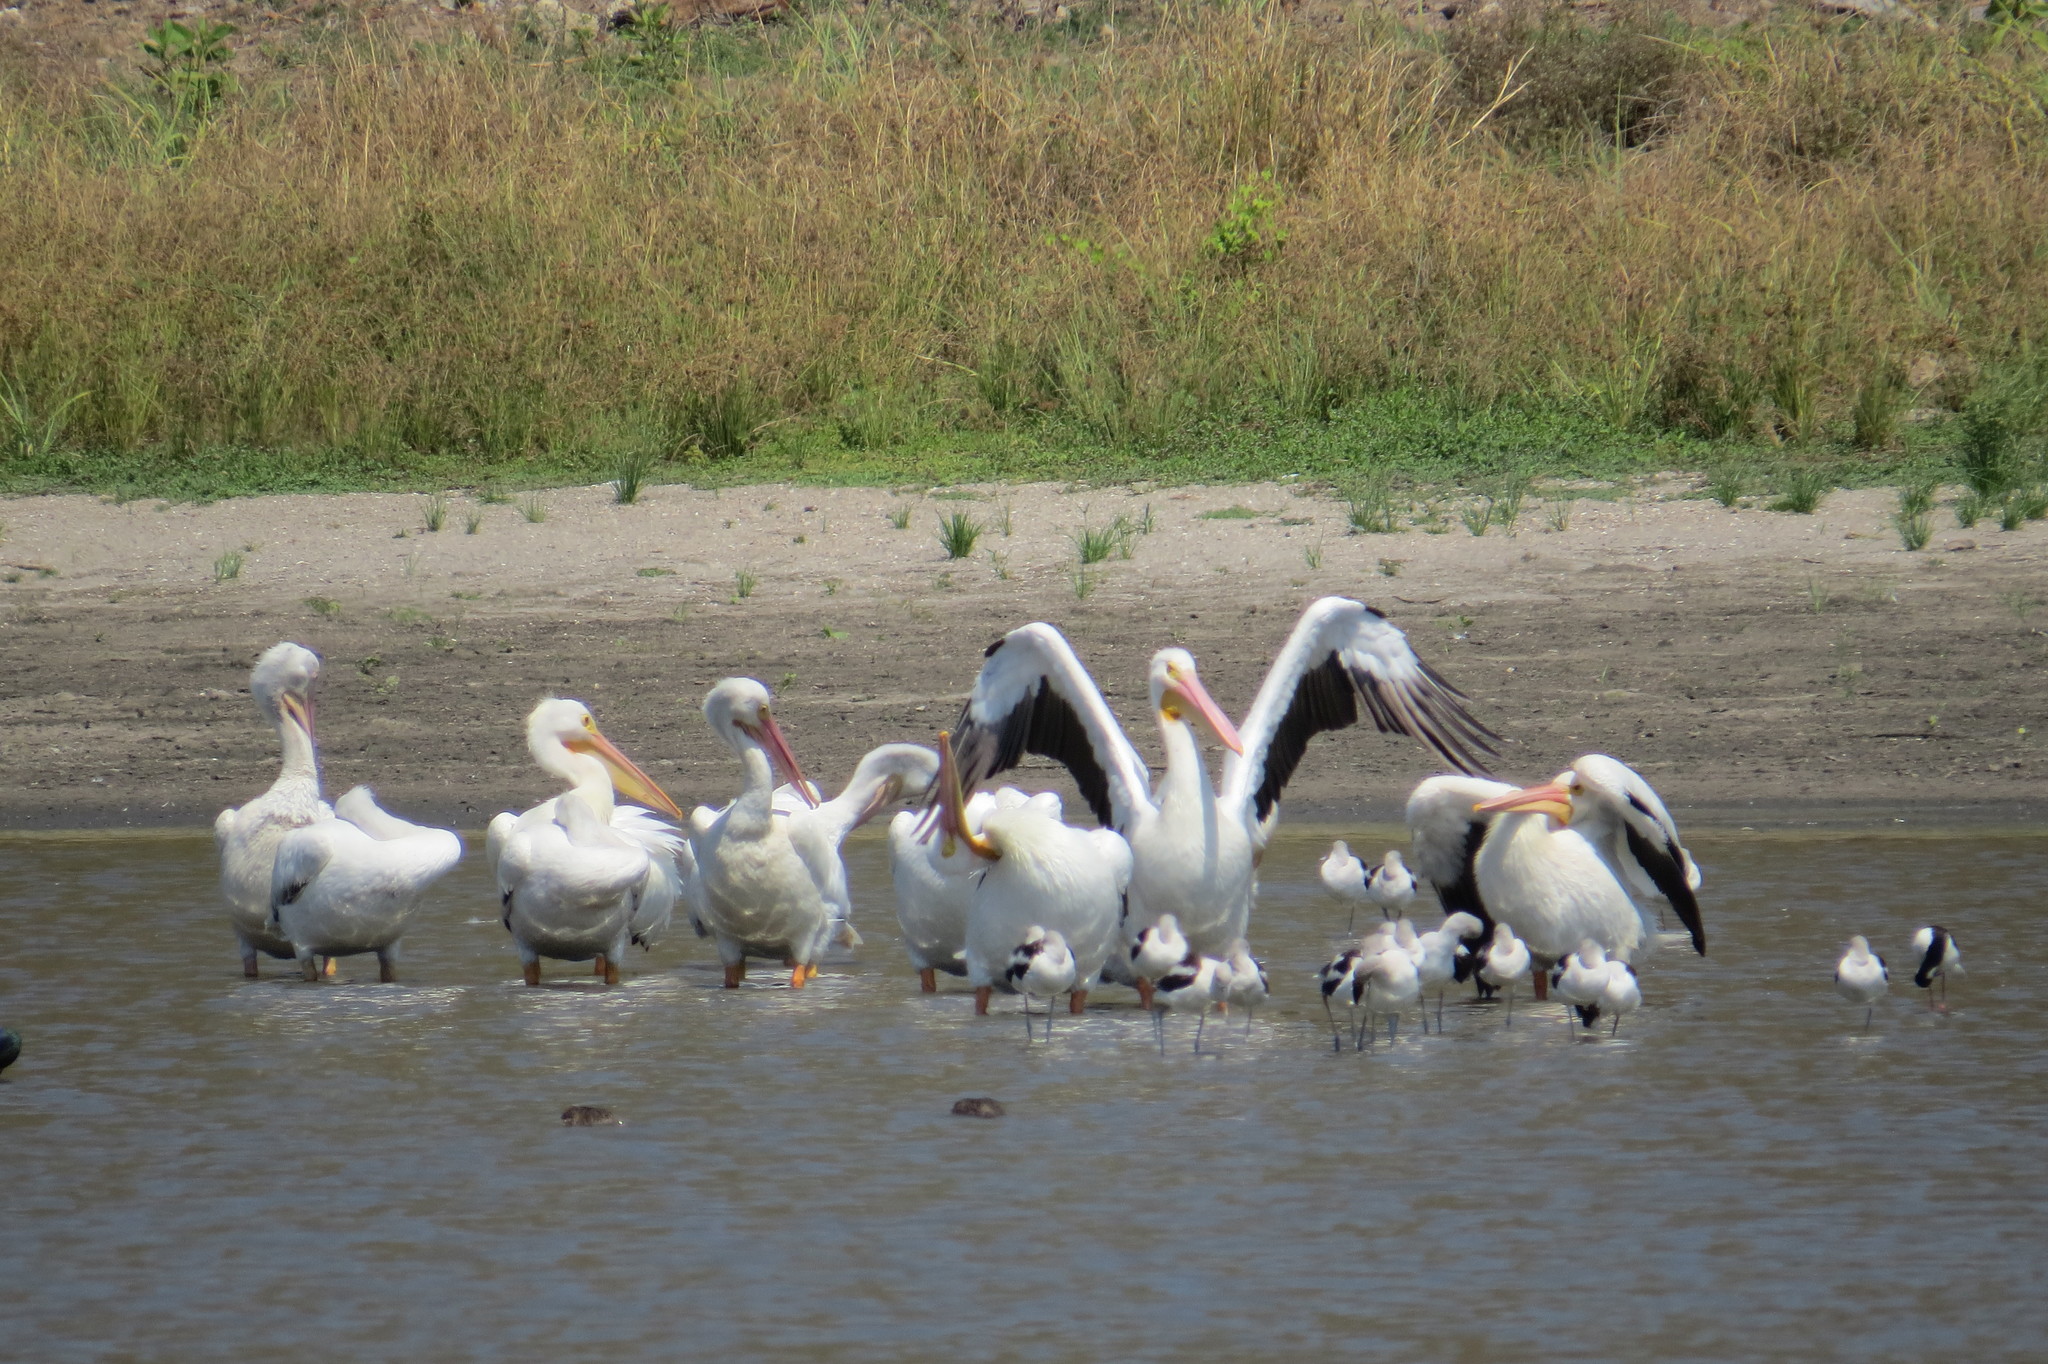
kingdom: Animalia
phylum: Chordata
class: Aves
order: Pelecaniformes
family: Pelecanidae
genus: Pelecanus
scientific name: Pelecanus erythrorhynchos
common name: American white pelican
